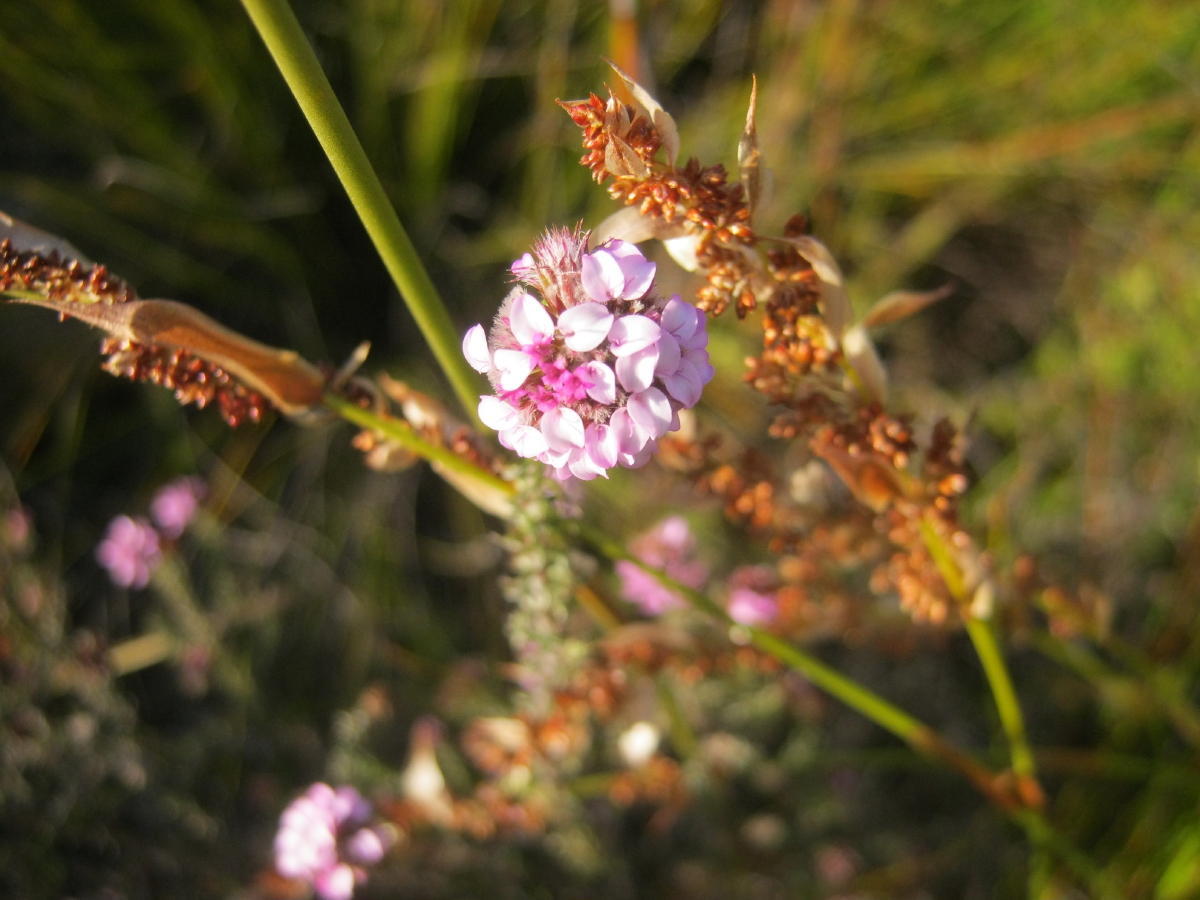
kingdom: Plantae
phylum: Tracheophyta
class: Magnoliopsida
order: Asterales
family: Asteraceae
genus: Disparago
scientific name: Disparago tortilis
